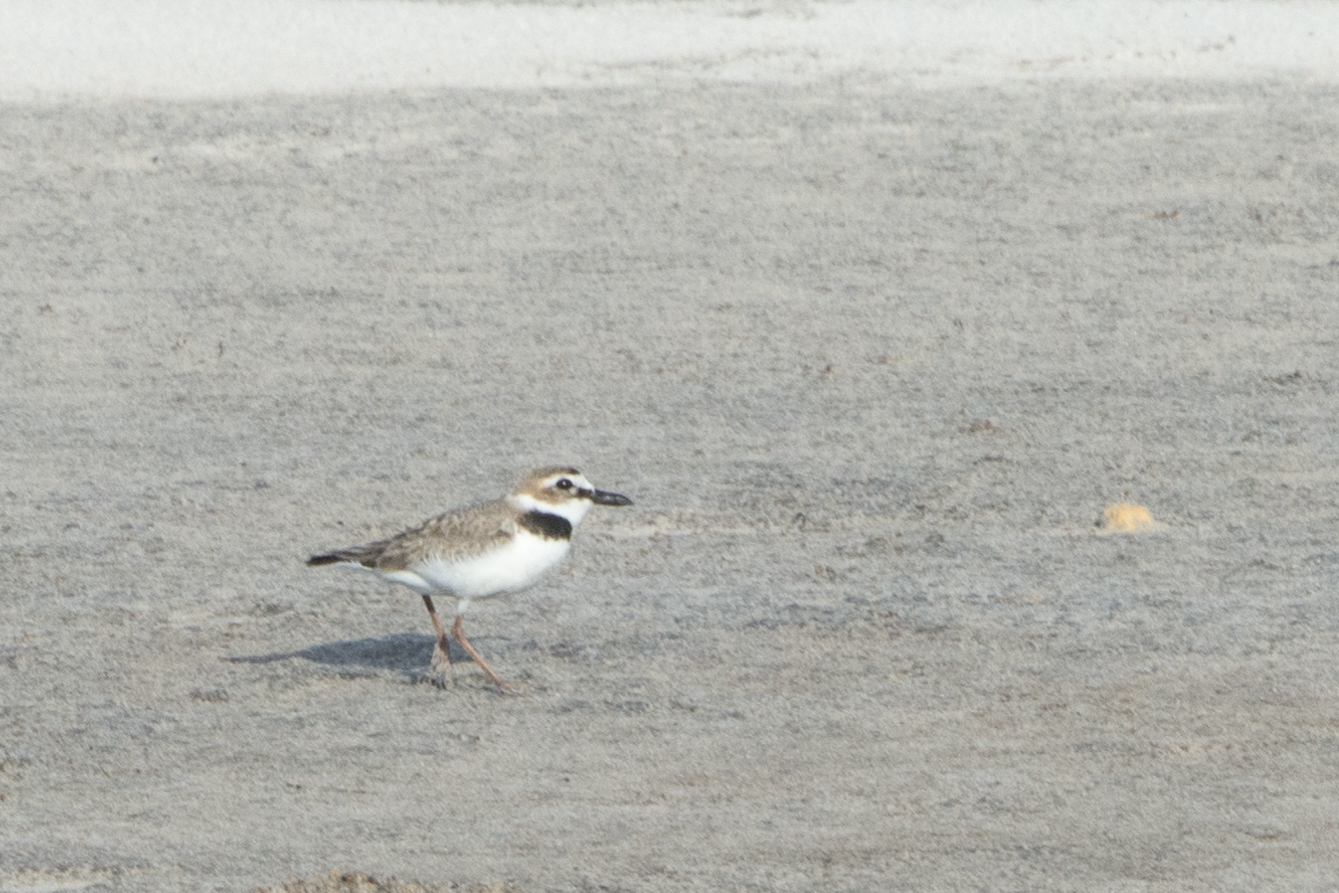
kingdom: Animalia
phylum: Chordata
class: Aves
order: Charadriiformes
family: Charadriidae
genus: Anarhynchus
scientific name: Anarhynchus
